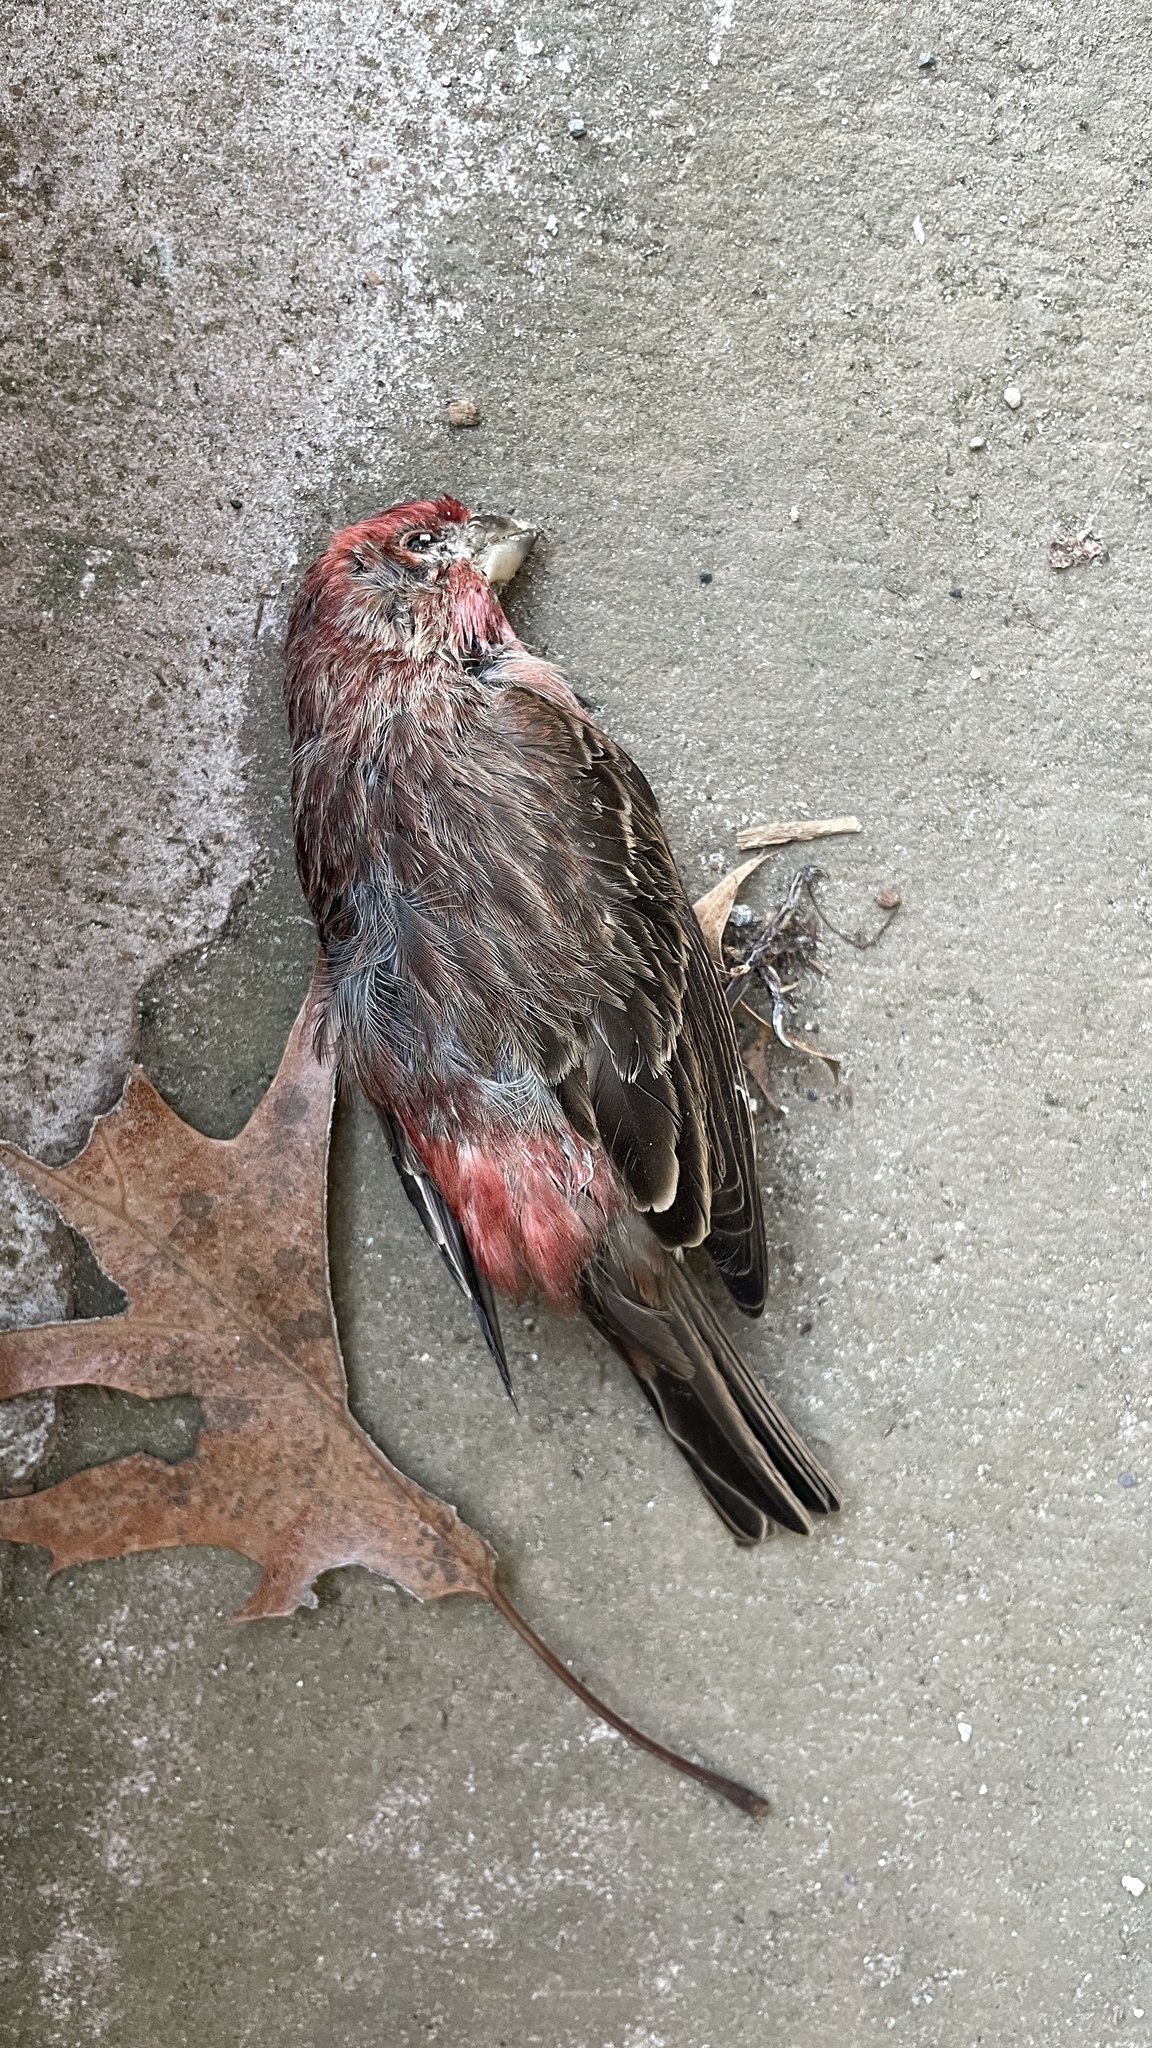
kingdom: Animalia
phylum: Chordata
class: Aves
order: Passeriformes
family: Fringillidae
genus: Haemorhous
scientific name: Haemorhous mexicanus
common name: House finch
